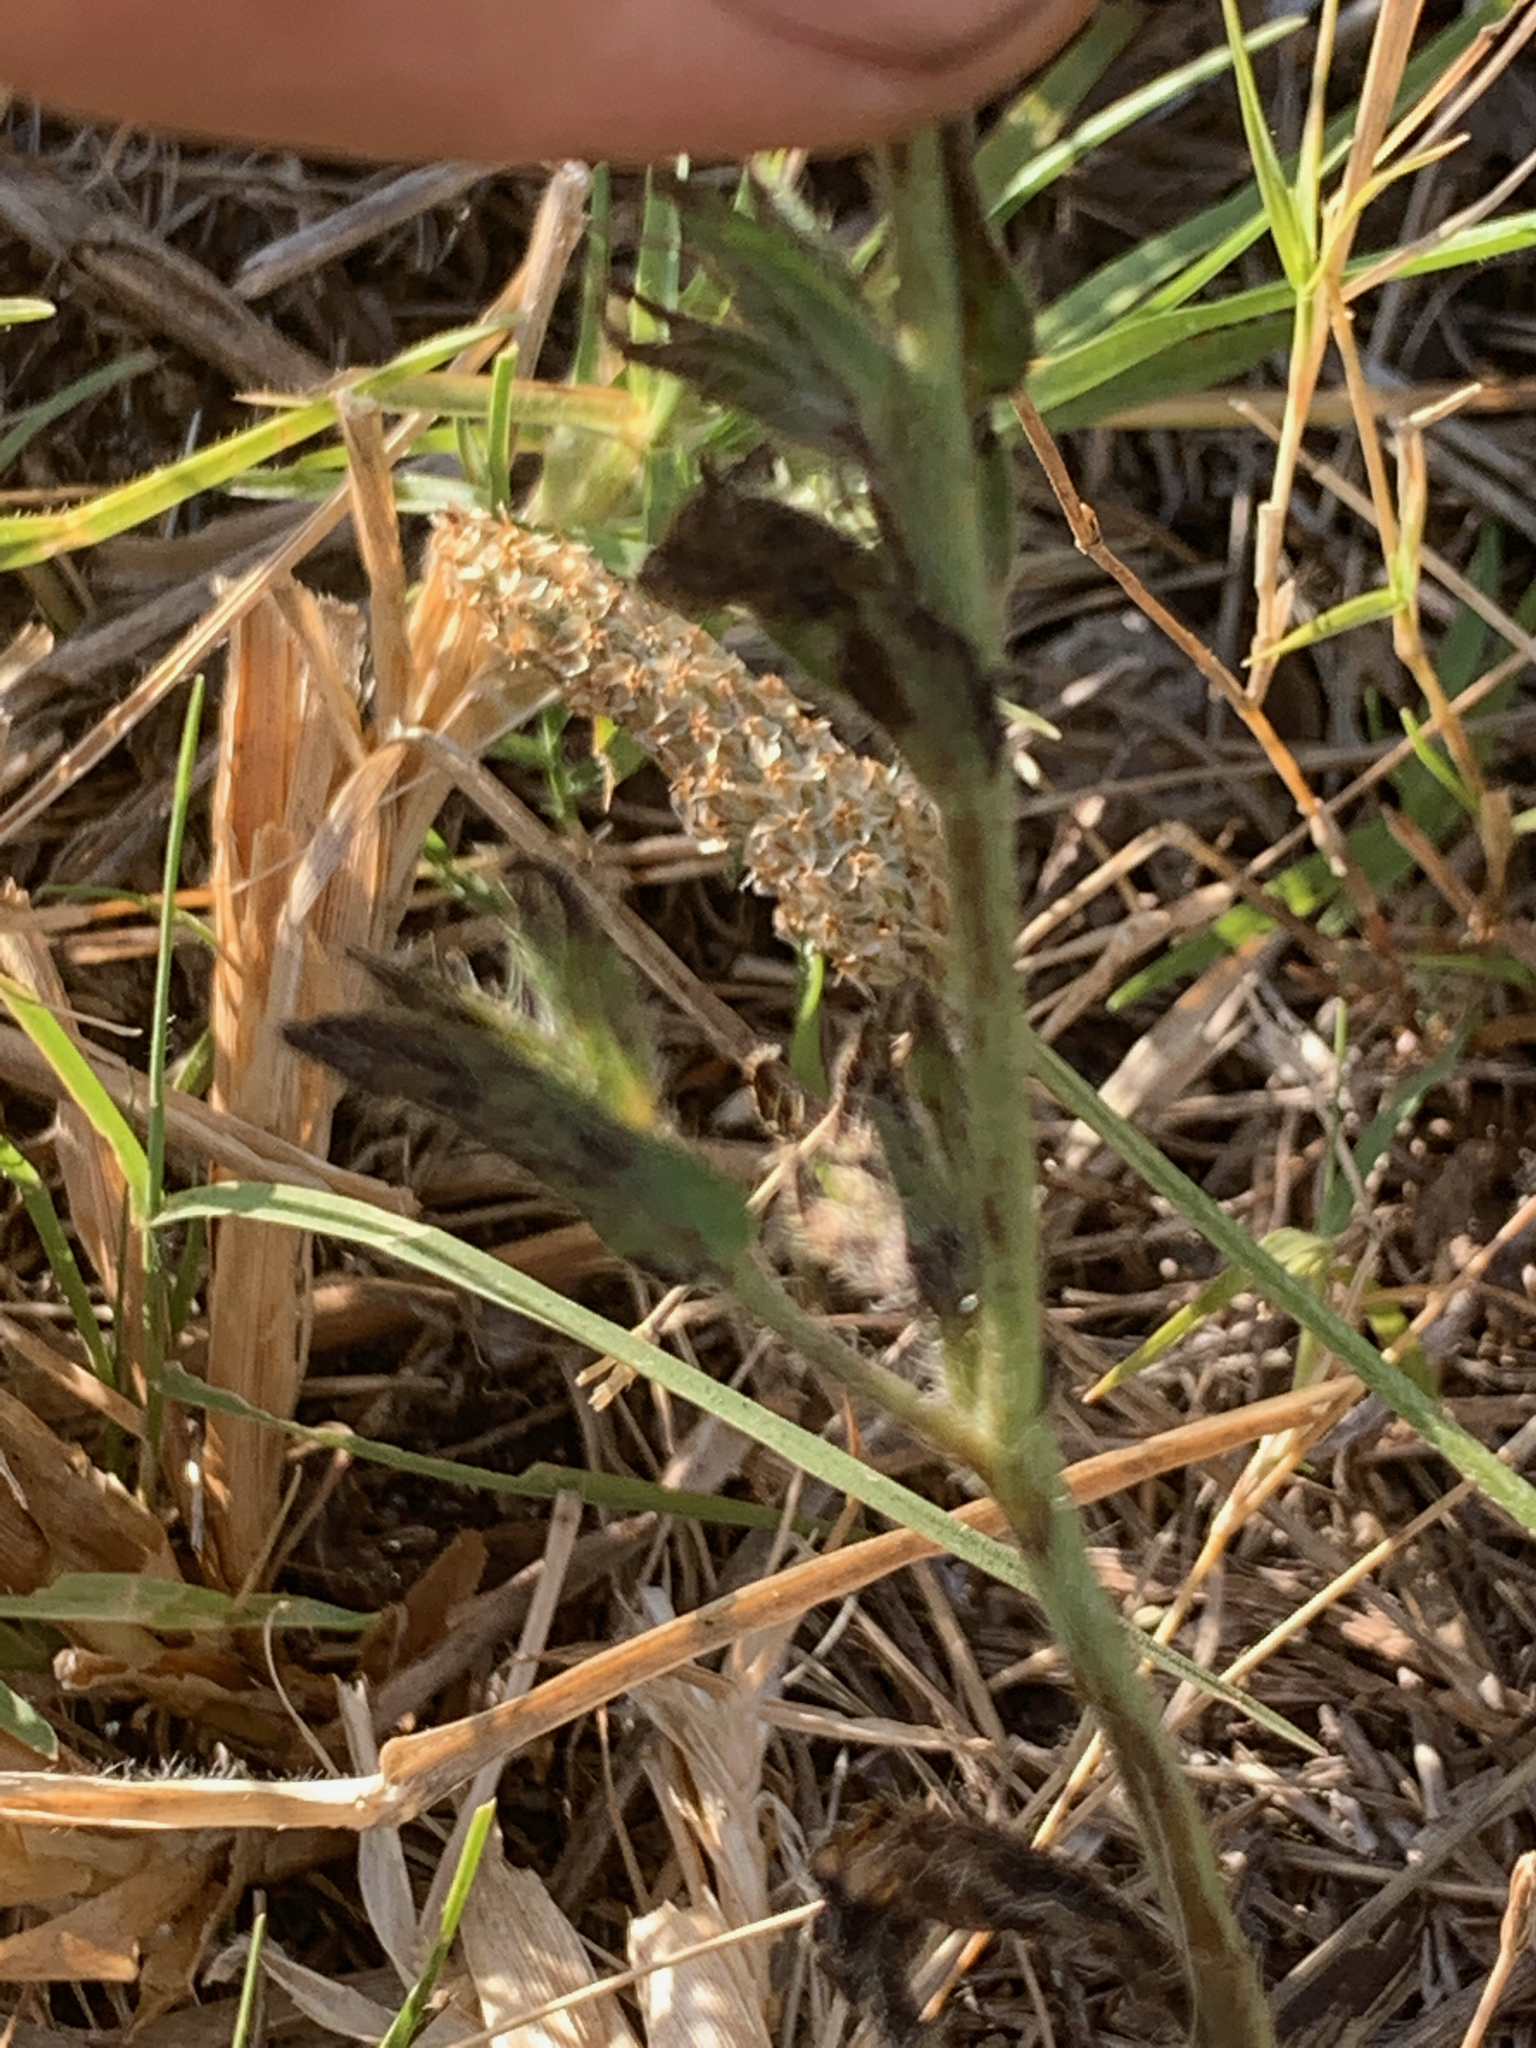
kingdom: Plantae
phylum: Tracheophyta
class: Magnoliopsida
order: Boraginales
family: Boraginaceae
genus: Echium
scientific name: Echium plantagineum
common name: Purple viper's-bugloss
